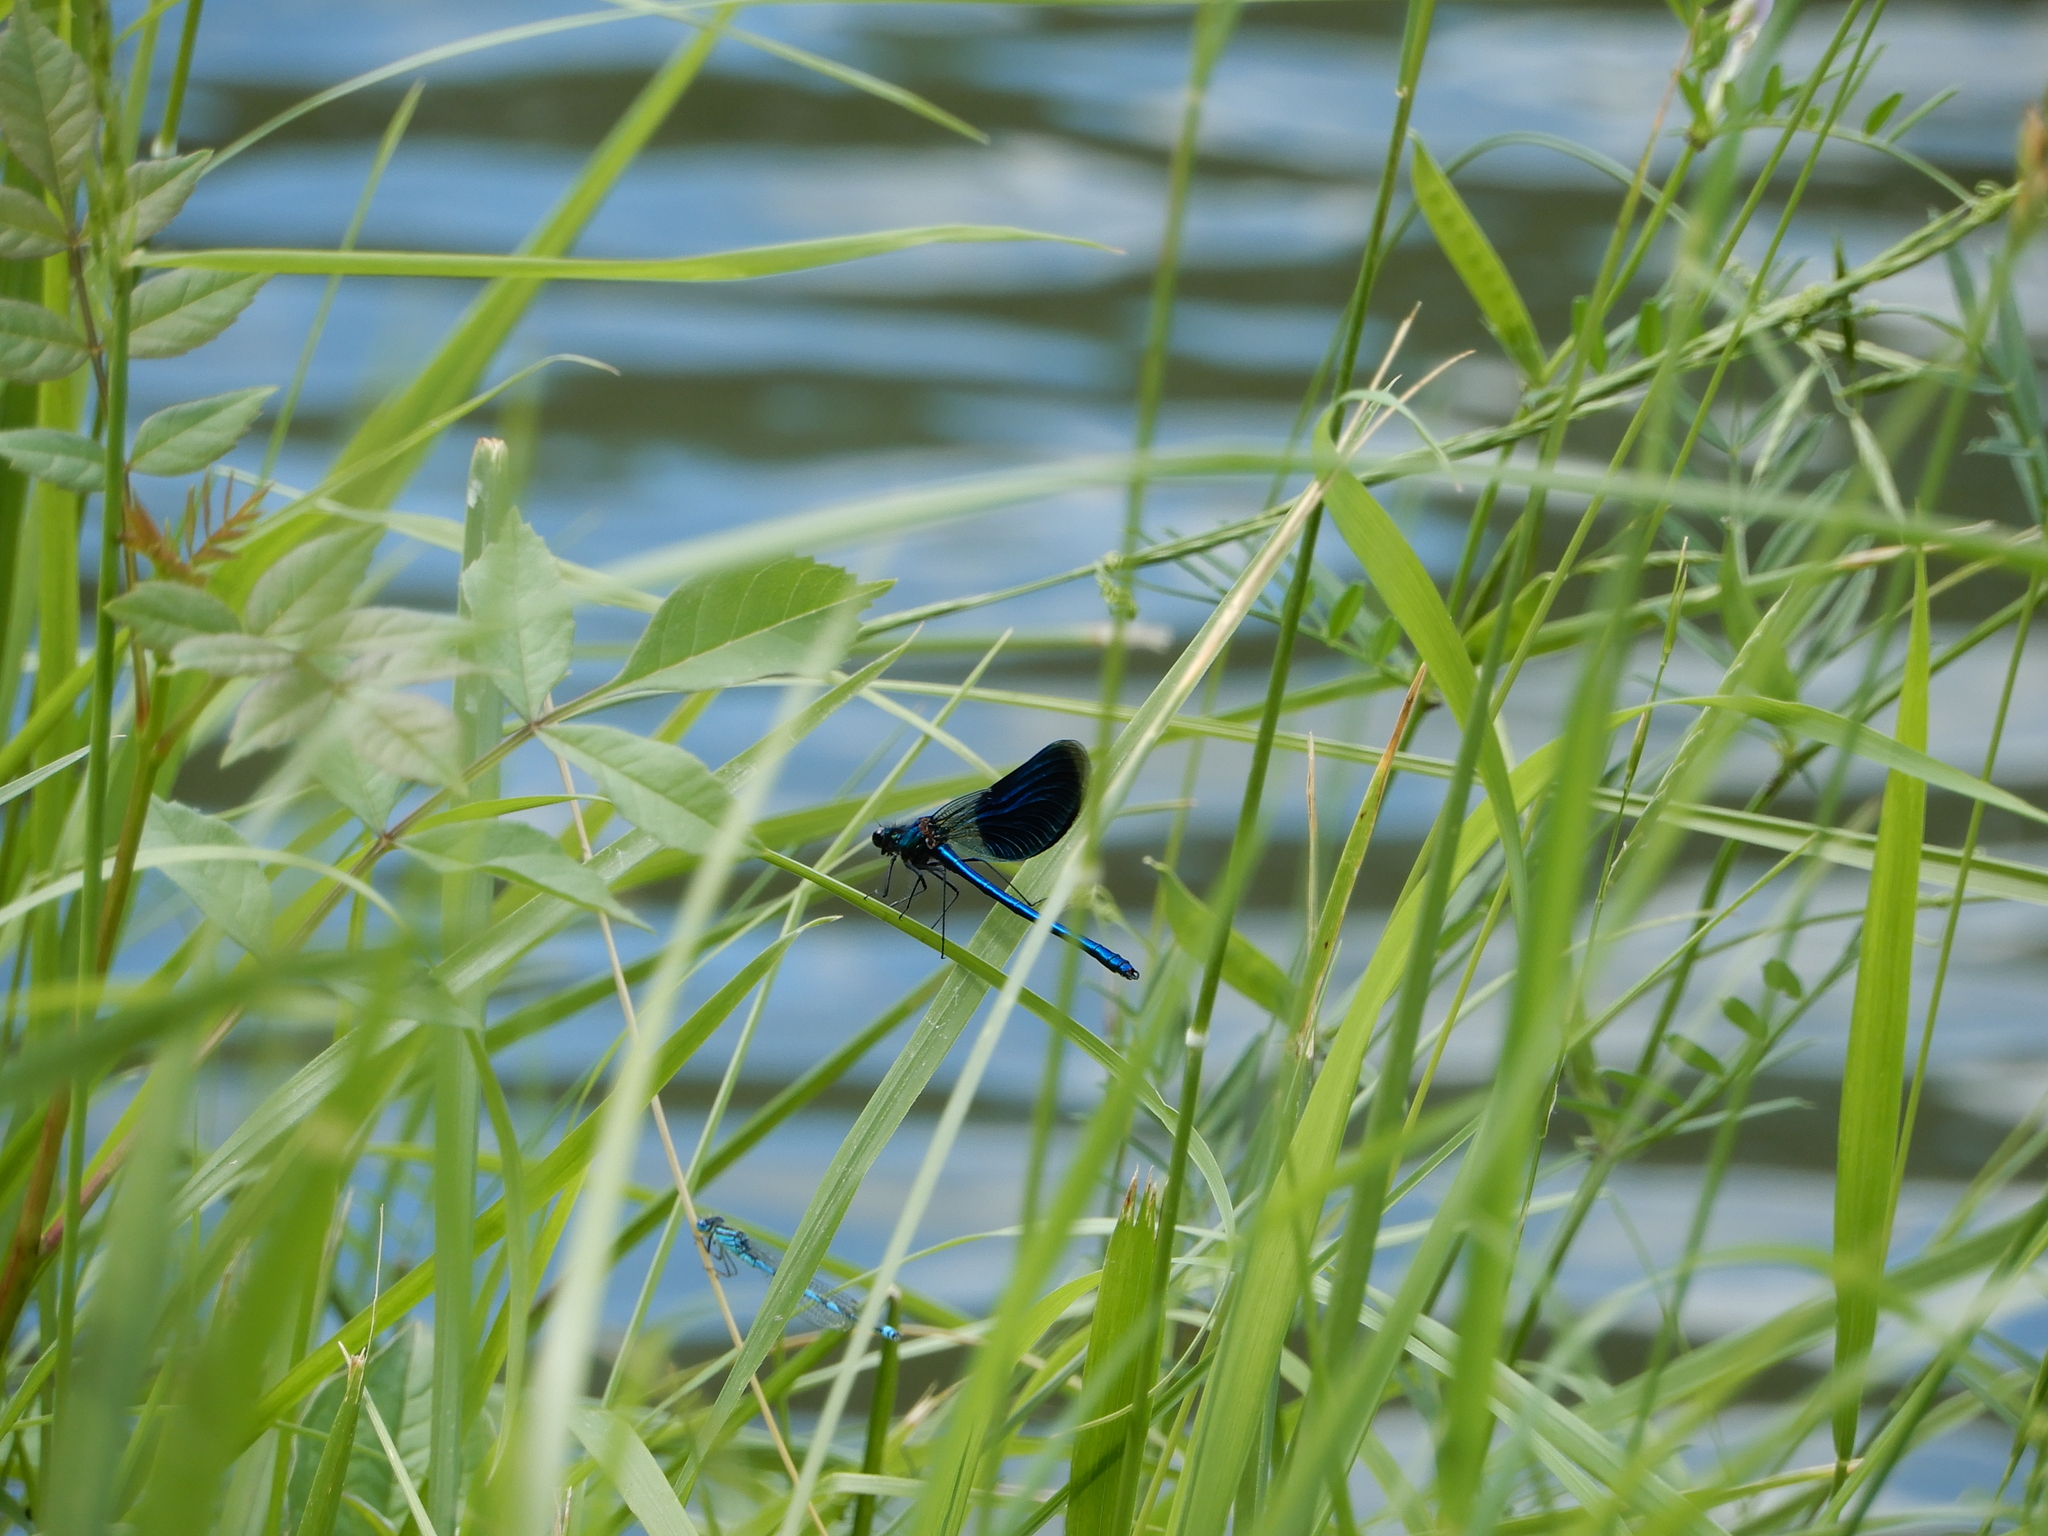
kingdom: Animalia
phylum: Arthropoda
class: Insecta
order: Odonata
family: Calopterygidae
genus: Calopteryx
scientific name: Calopteryx splendens
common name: Banded demoiselle
